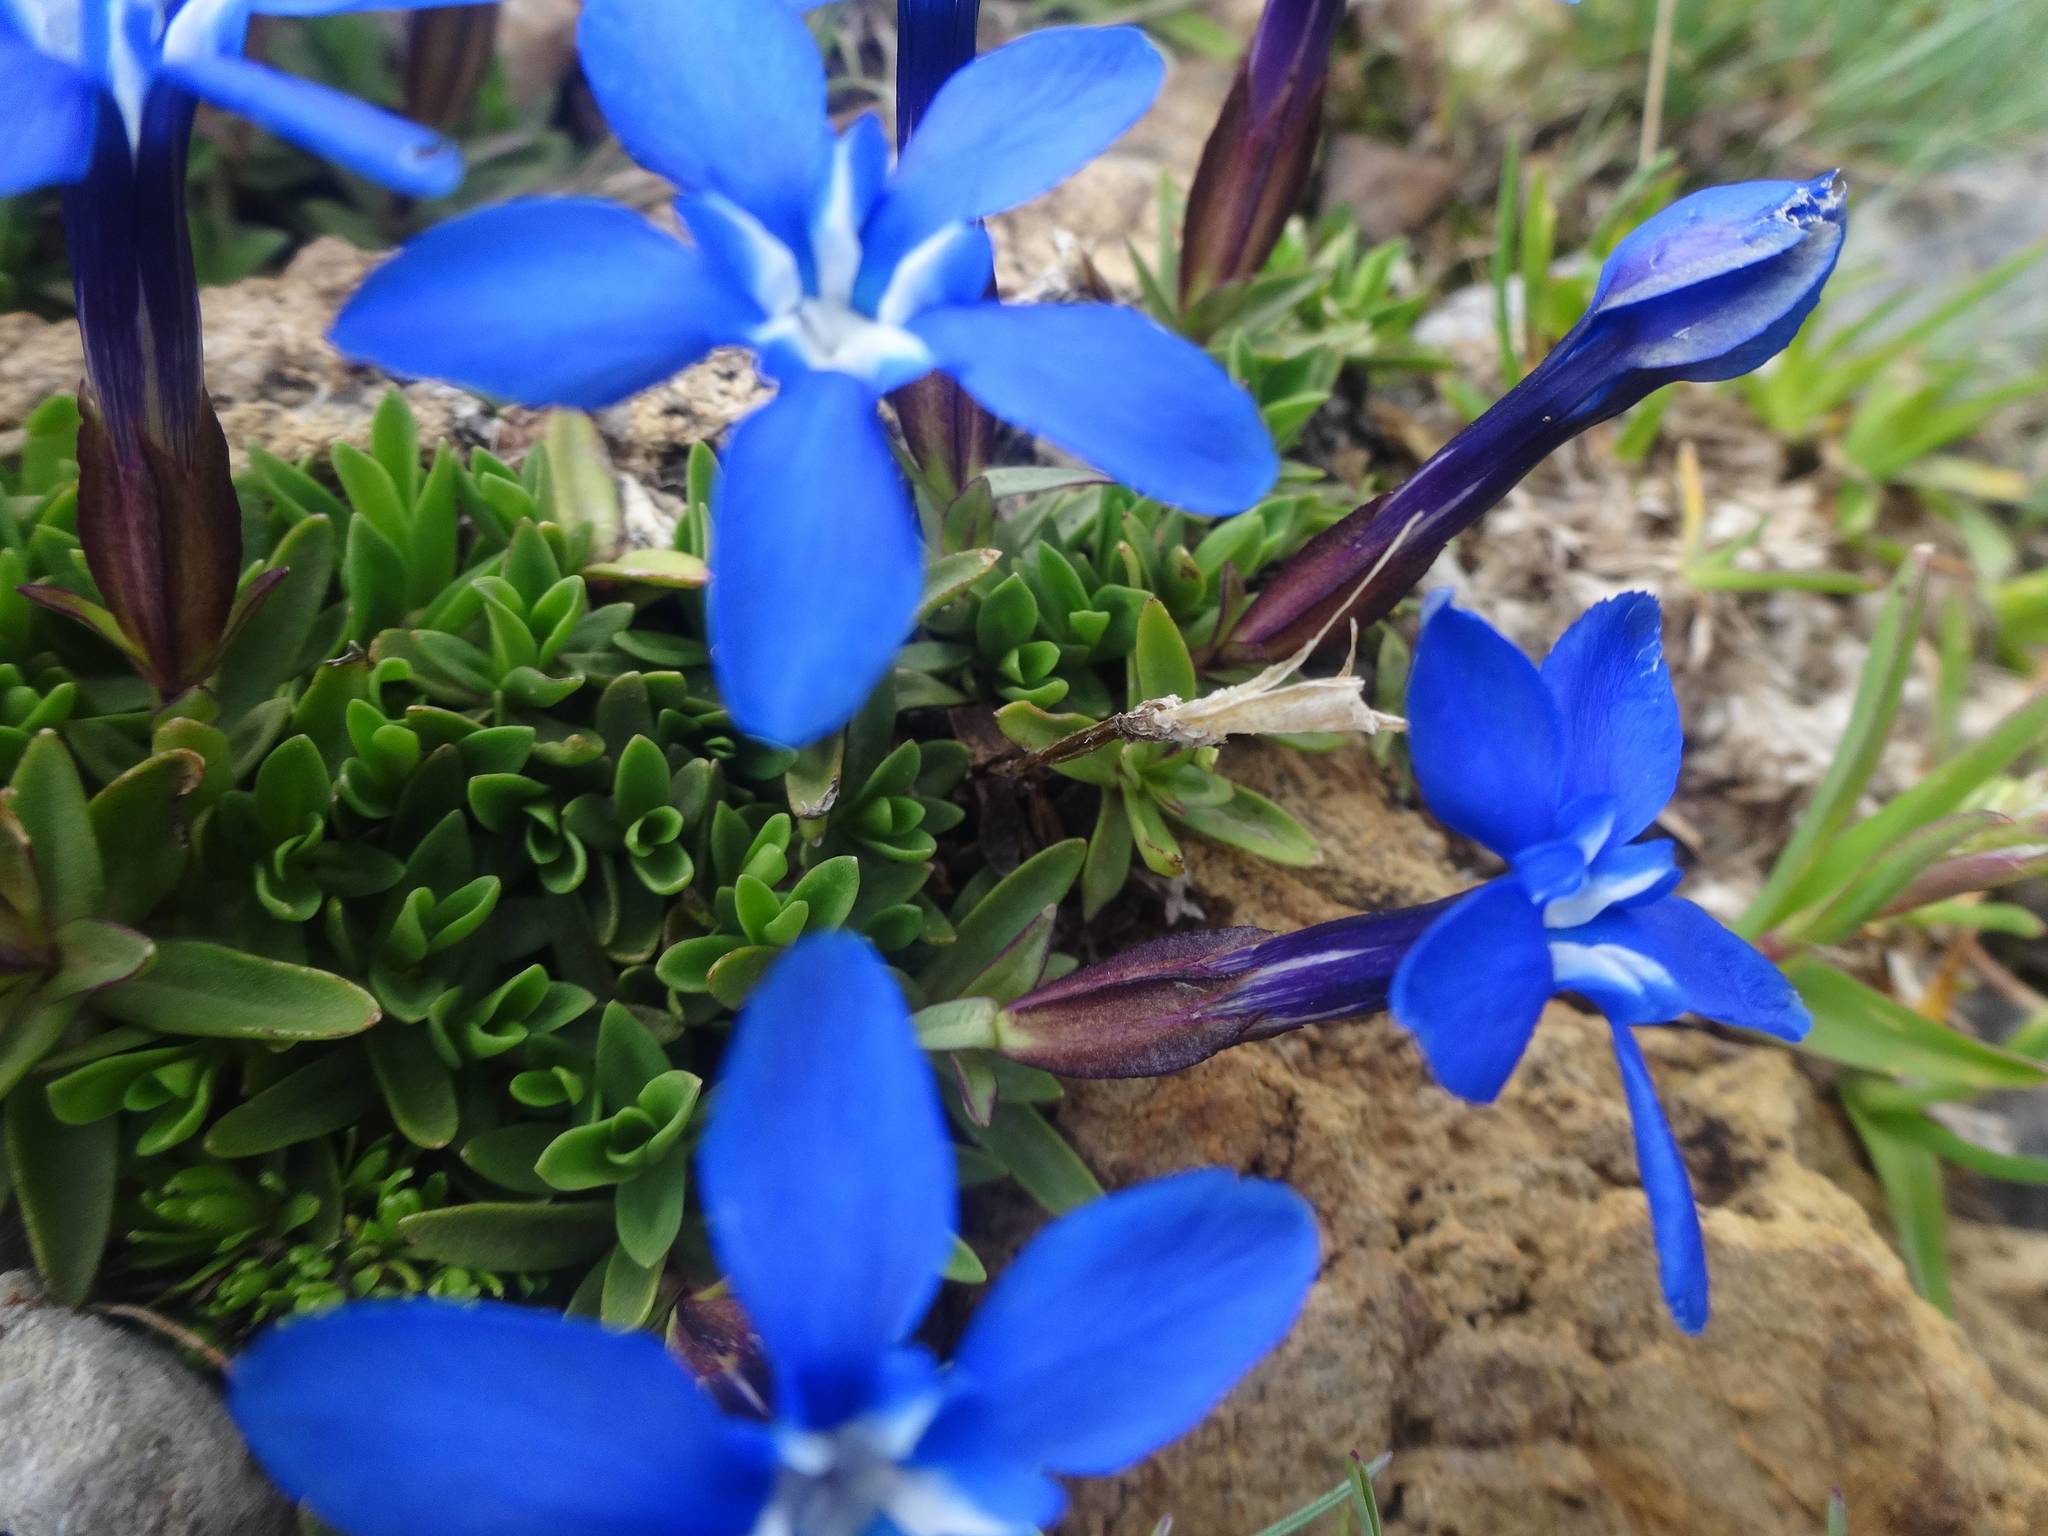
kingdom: Plantae
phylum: Tracheophyta
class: Magnoliopsida
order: Gentianales
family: Gentianaceae
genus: Gentiana
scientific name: Gentiana verna
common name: Spring gentian
